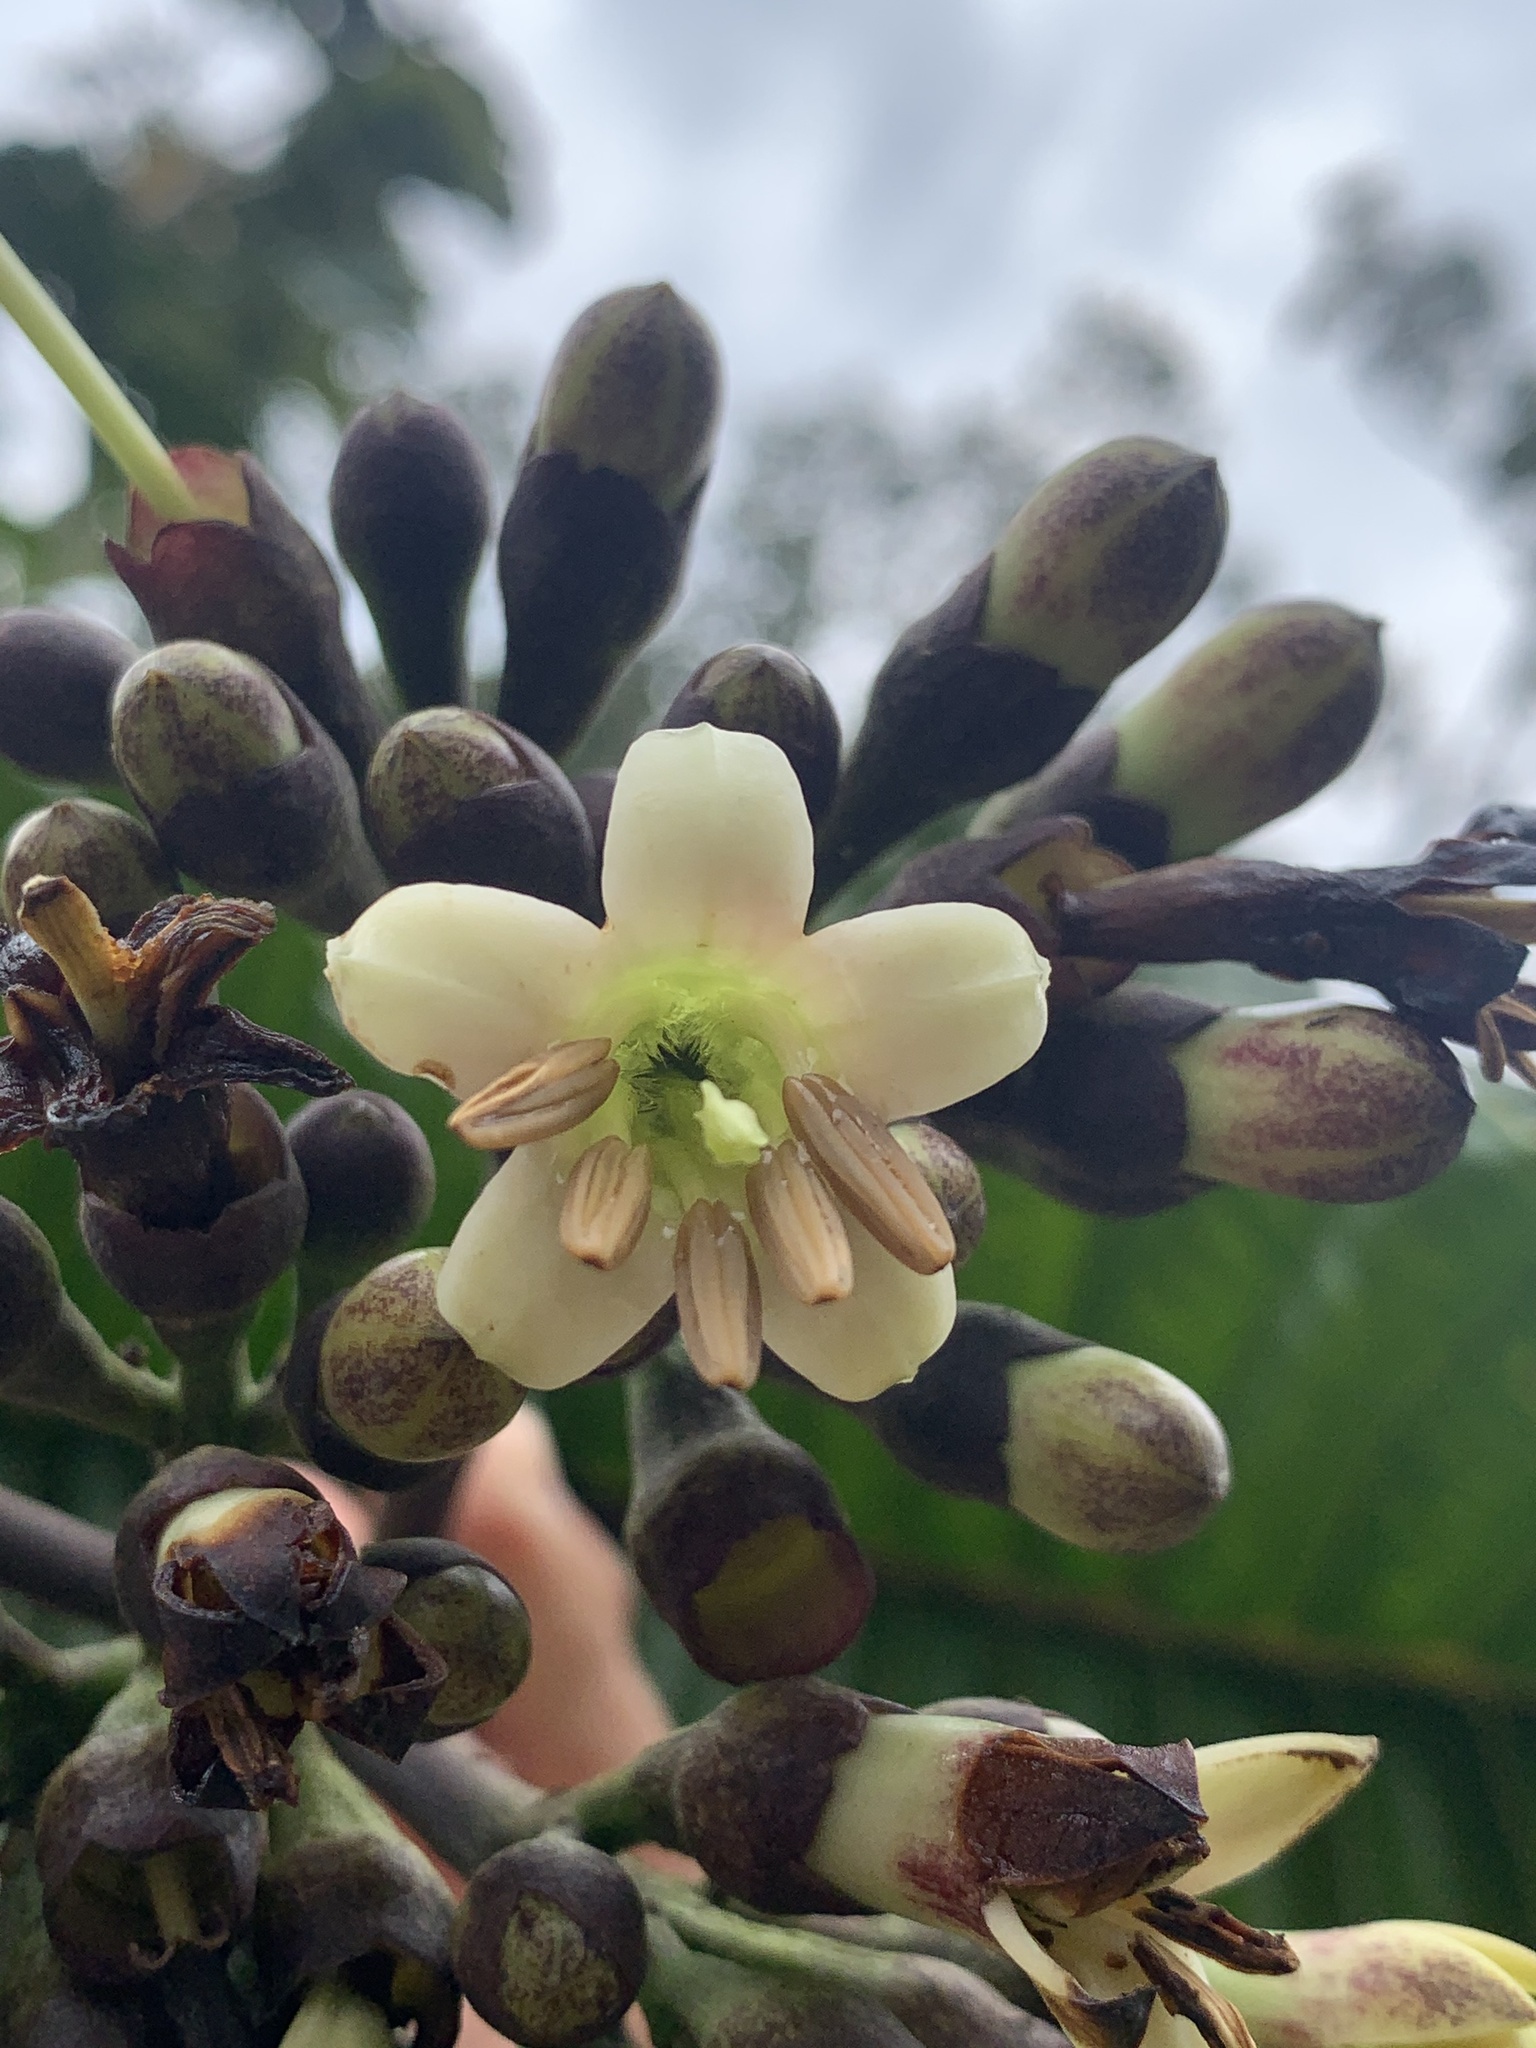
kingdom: Plantae
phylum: Tracheophyta
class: Magnoliopsida
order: Gentianales
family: Rubiaceae
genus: Condaminea
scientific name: Condaminea corymbosa
